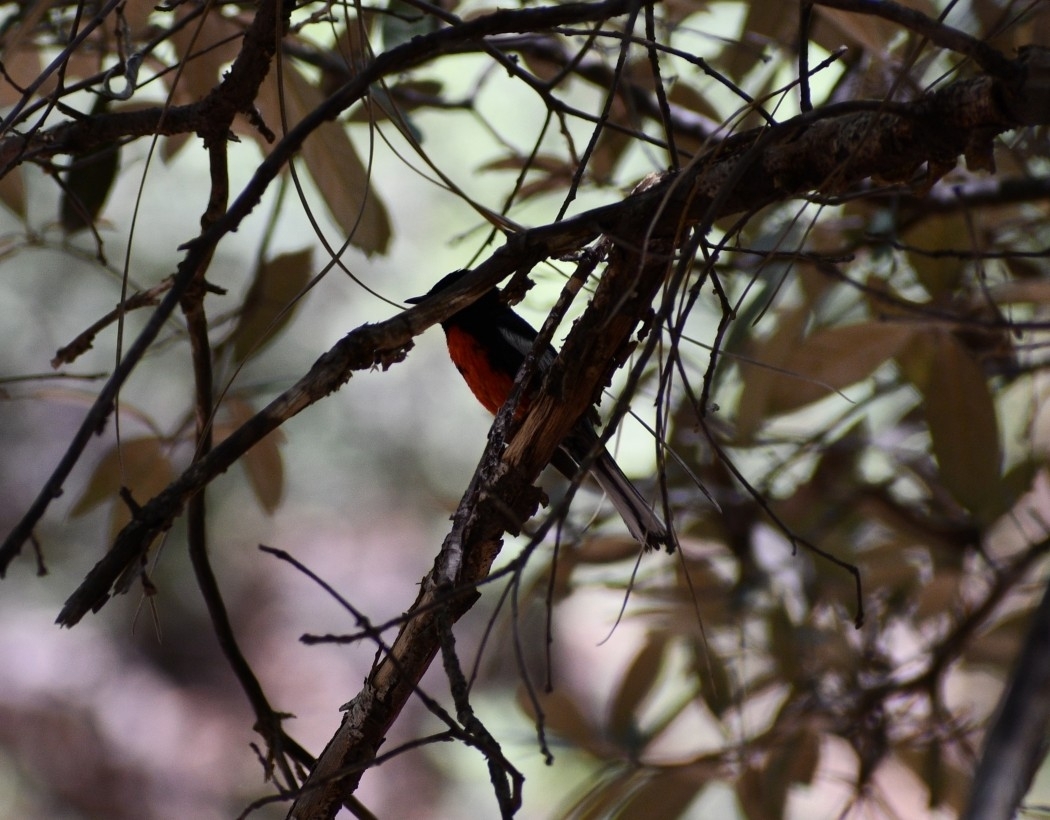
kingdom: Animalia
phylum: Chordata
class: Aves
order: Passeriformes
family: Parulidae
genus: Myioborus
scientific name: Myioborus pictus
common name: Painted whitestart
